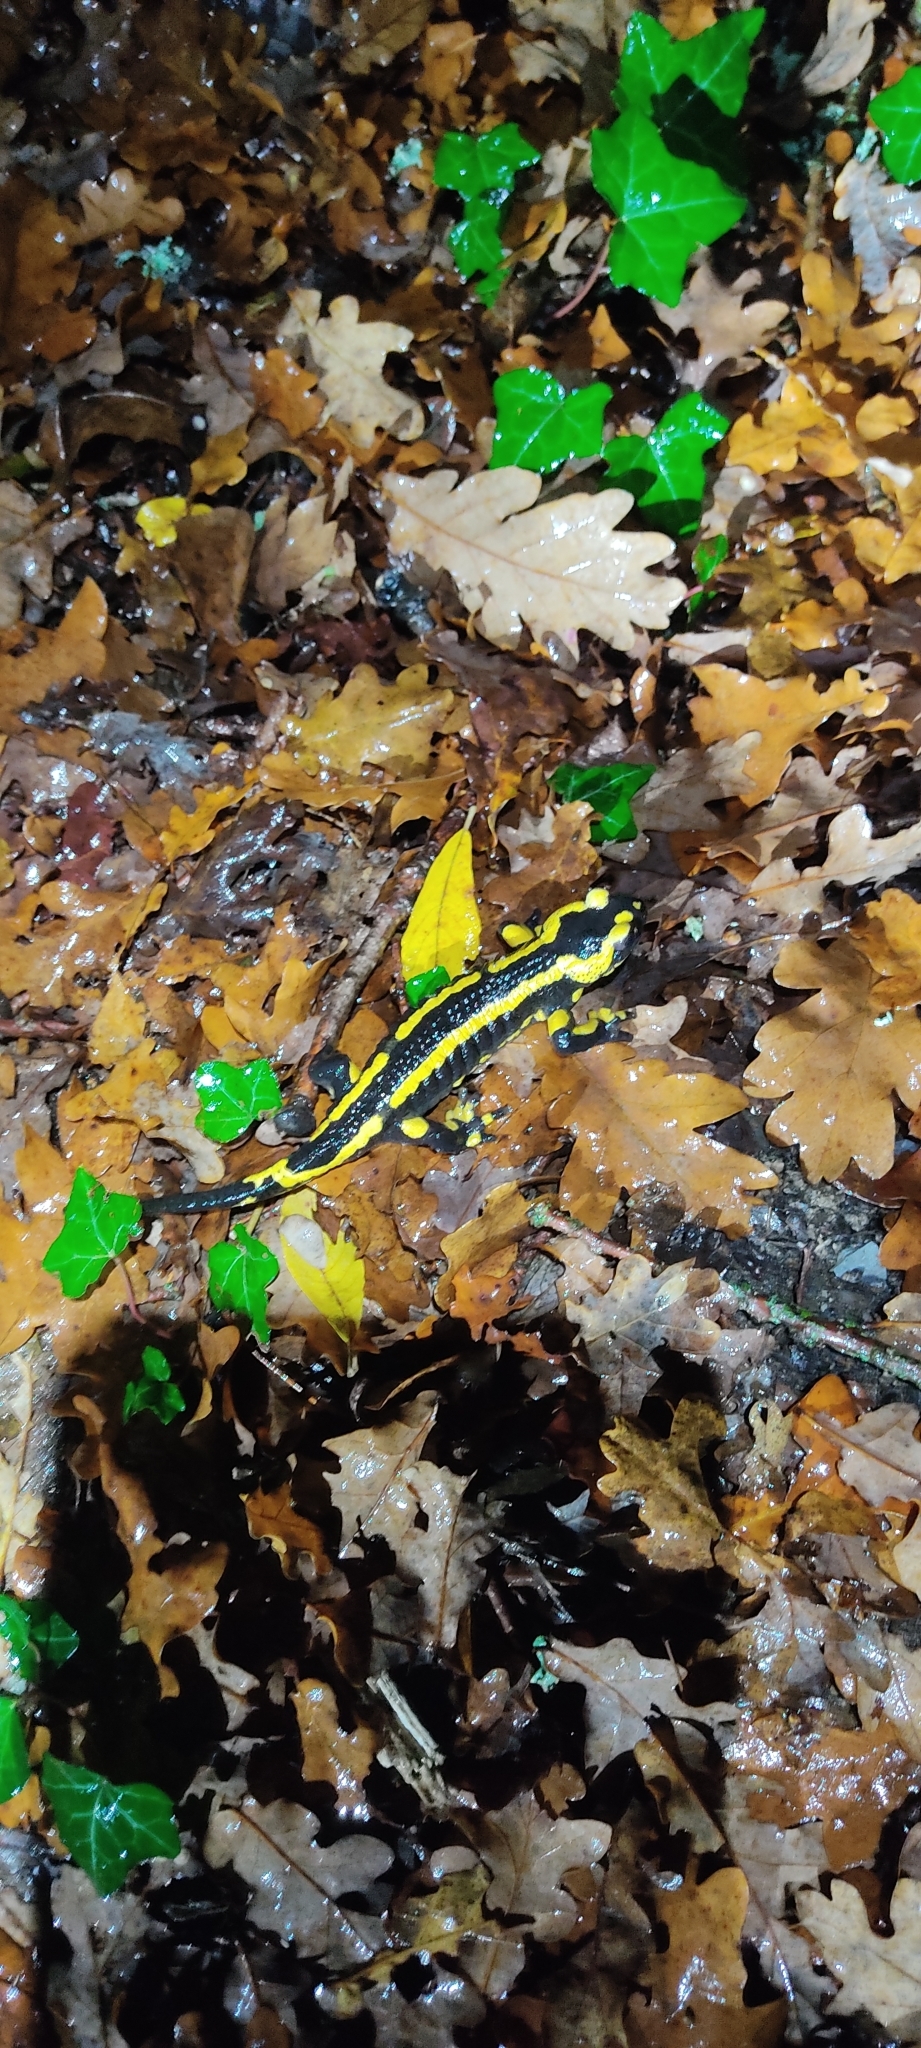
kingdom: Animalia
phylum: Chordata
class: Amphibia
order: Caudata
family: Salamandridae
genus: Salamandra
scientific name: Salamandra salamandra
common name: Fire salamander
